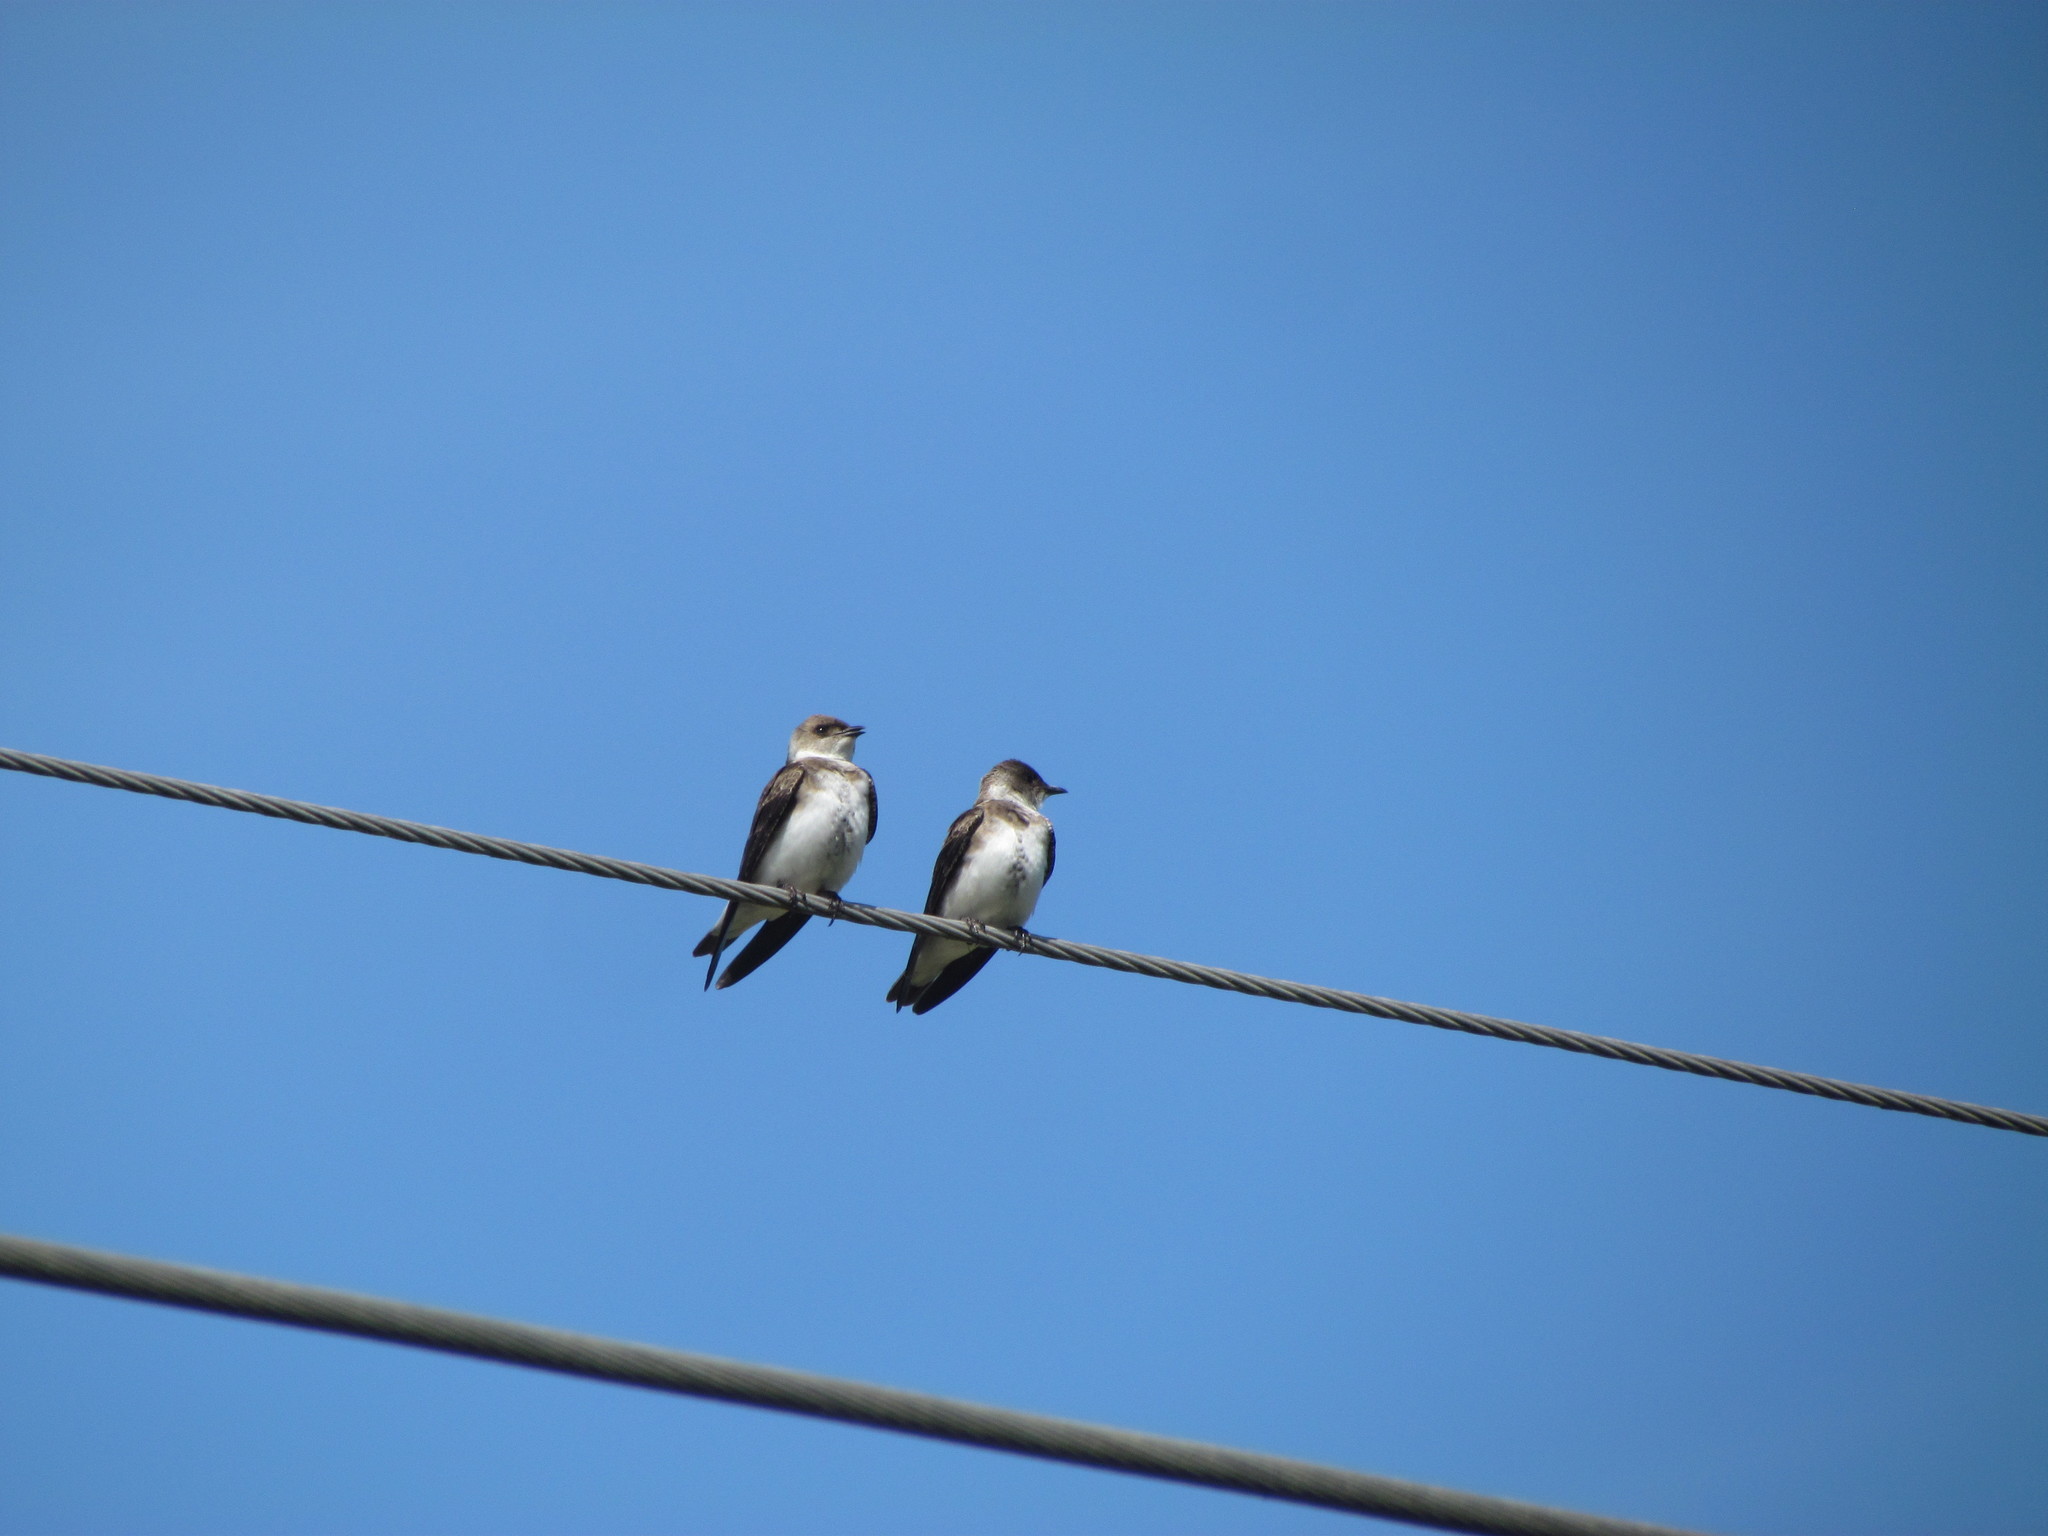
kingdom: Animalia
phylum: Chordata
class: Aves
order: Passeriformes
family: Hirundinidae
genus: Progne
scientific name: Progne tapera
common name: Brown-chested martin
